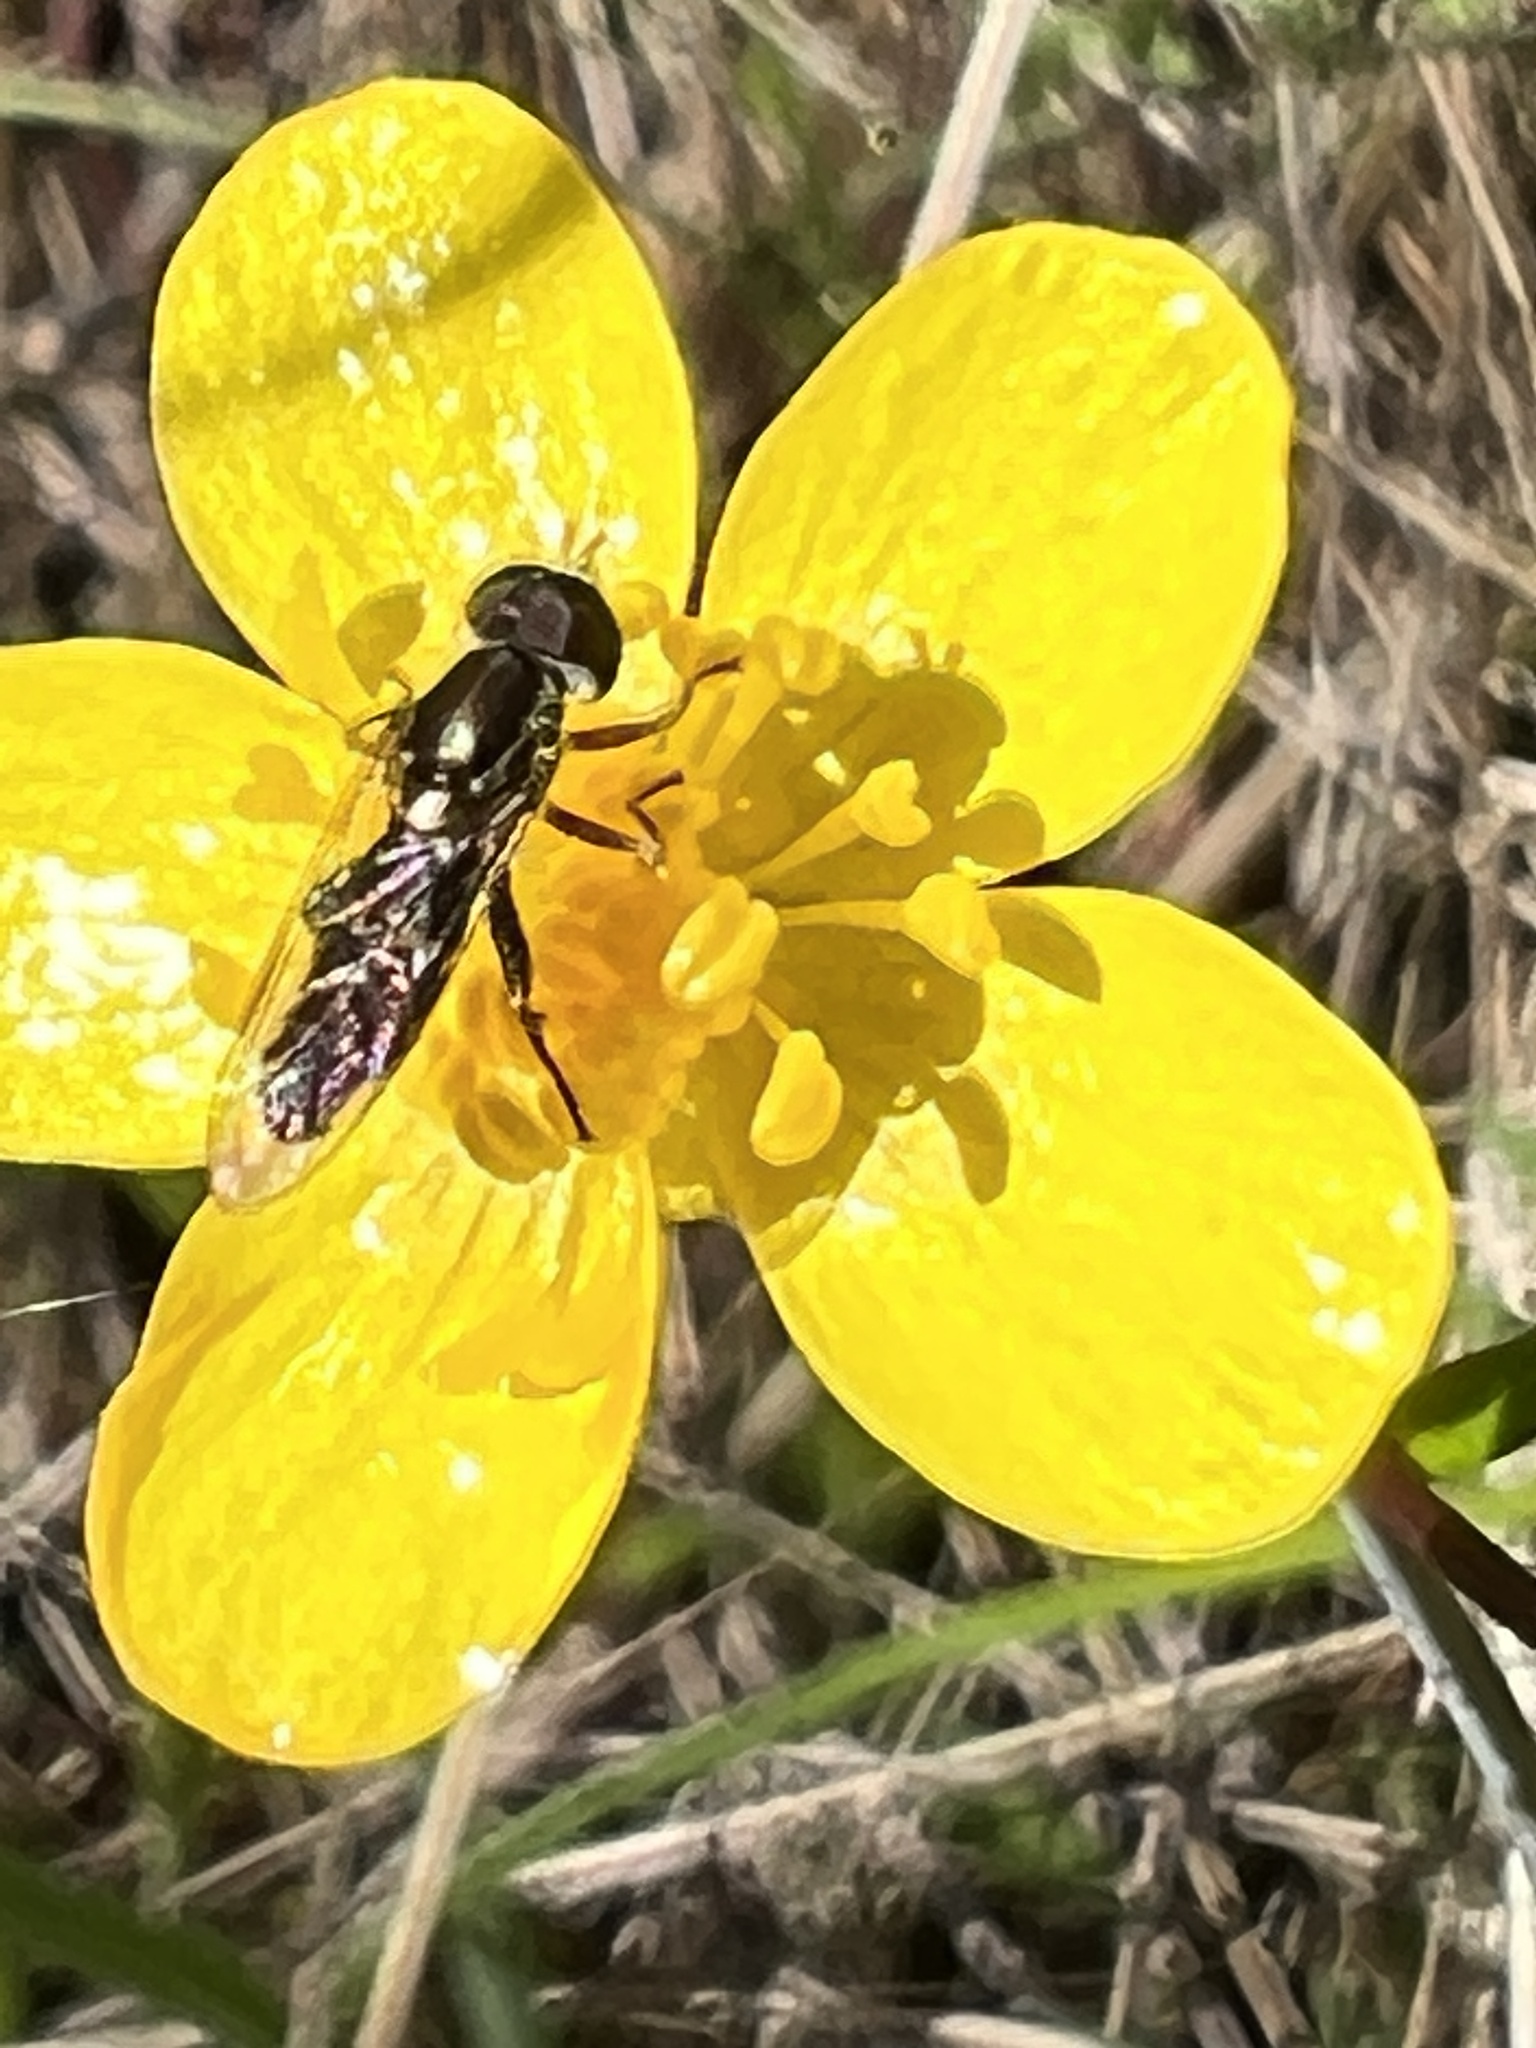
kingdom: Animalia
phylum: Arthropoda
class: Insecta
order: Diptera
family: Syrphidae
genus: Toxomerus
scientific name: Toxomerus occidentalis
